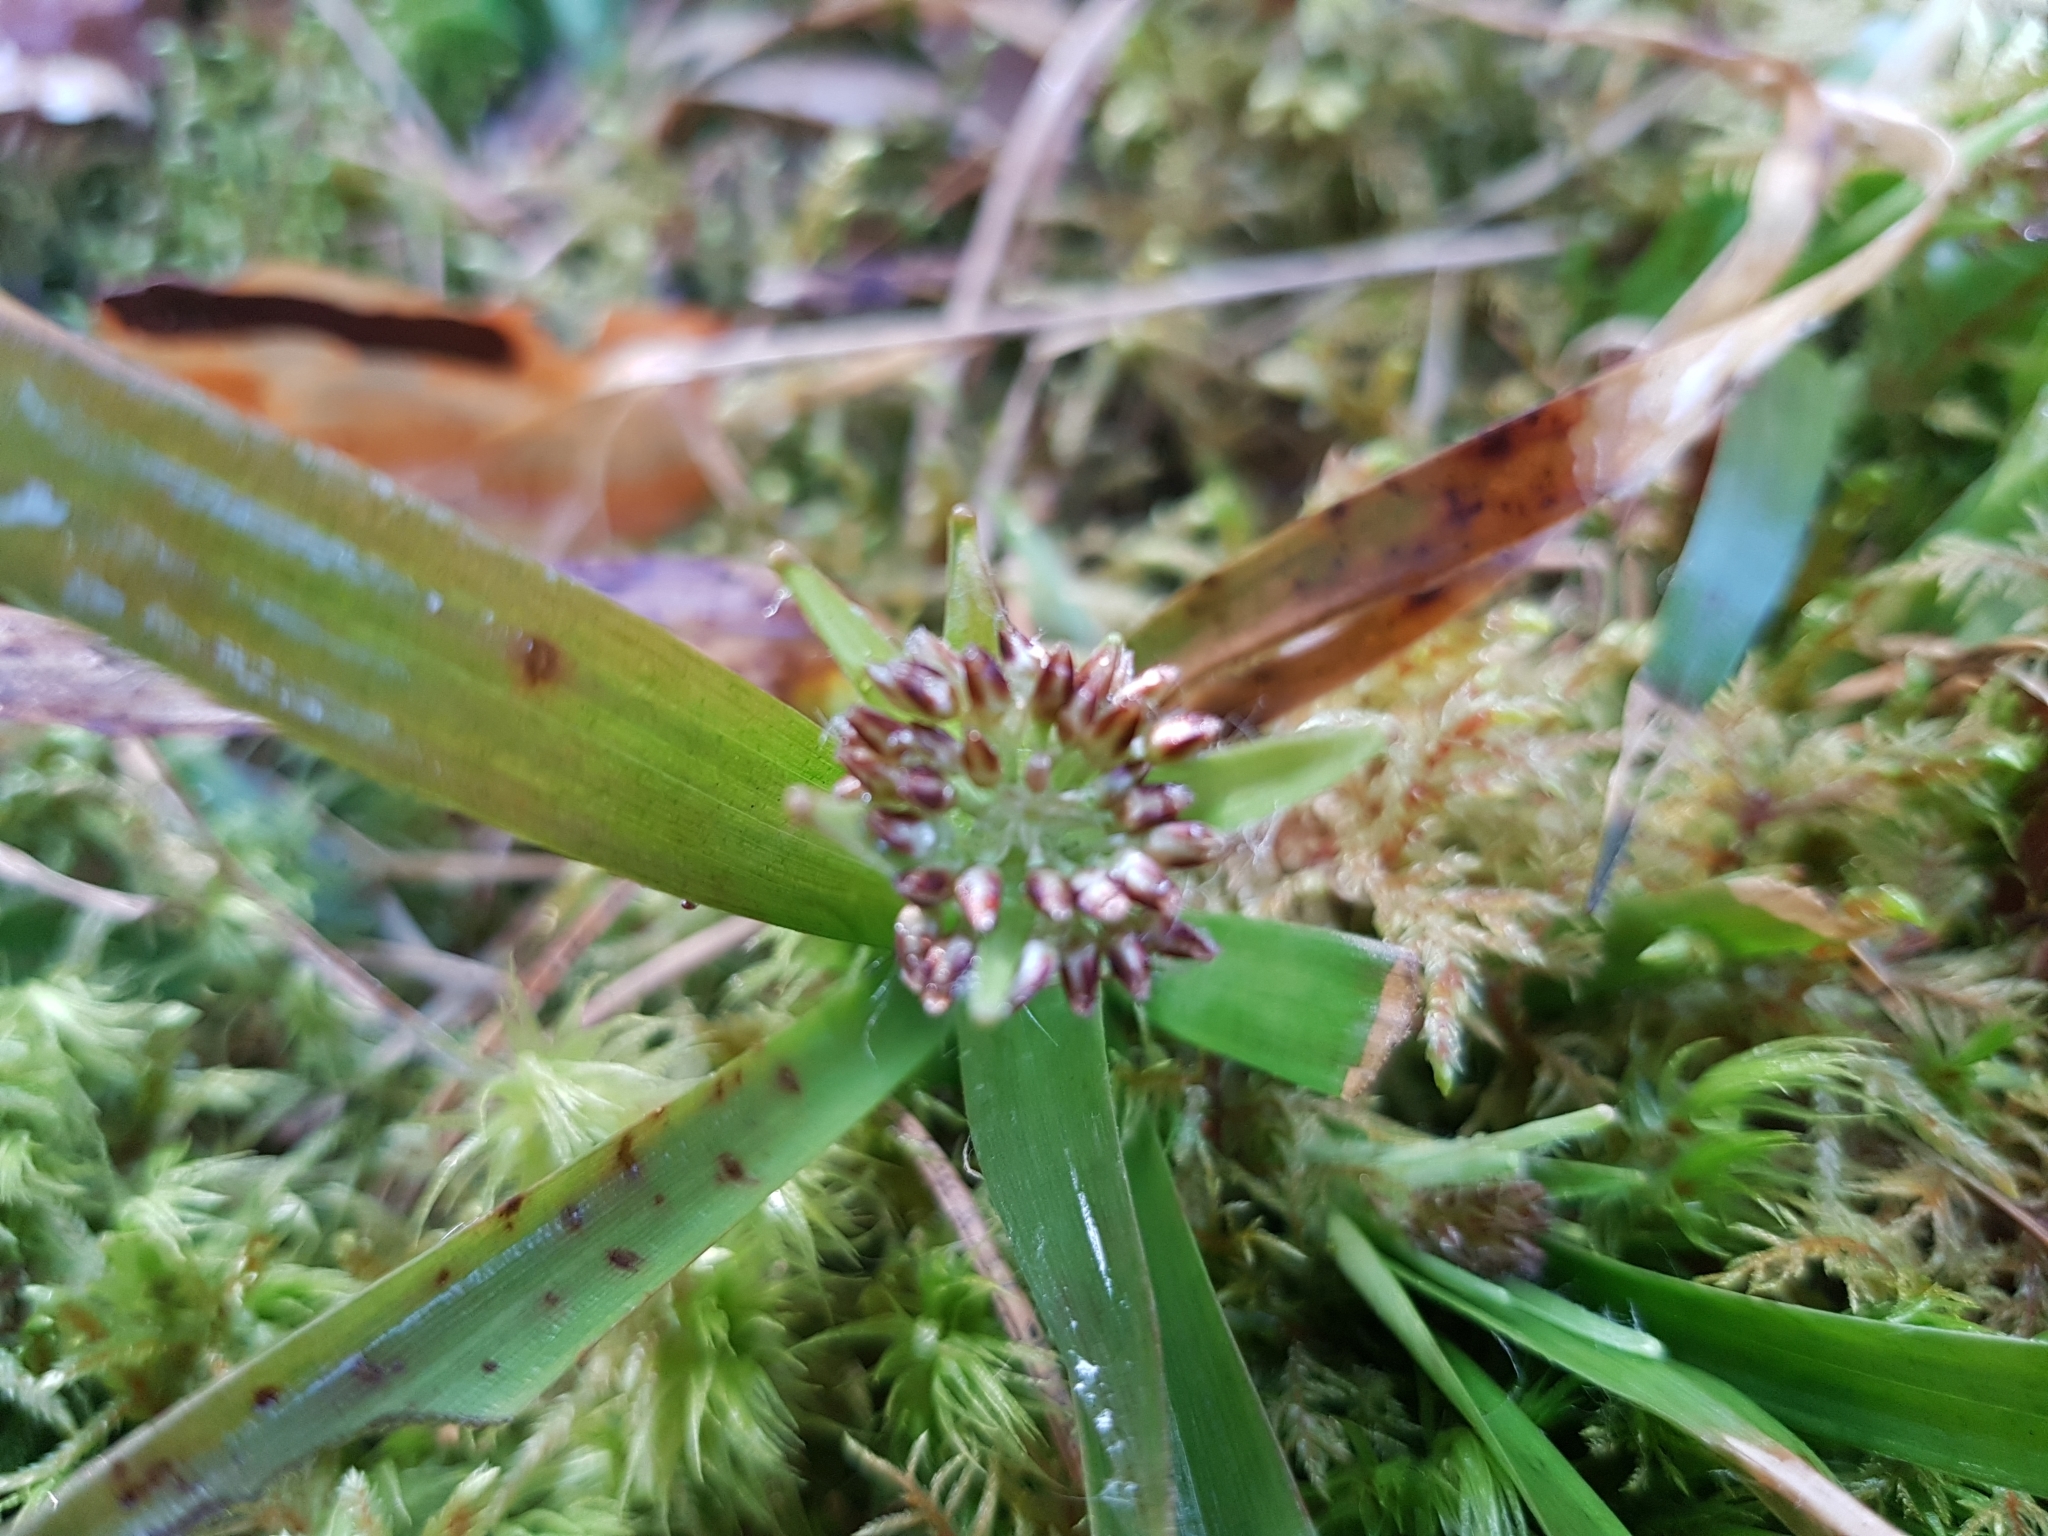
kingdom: Plantae
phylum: Tracheophyta
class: Liliopsida
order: Poales
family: Juncaceae
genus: Luzula
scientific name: Luzula pilosa
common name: Hairy wood-rush
